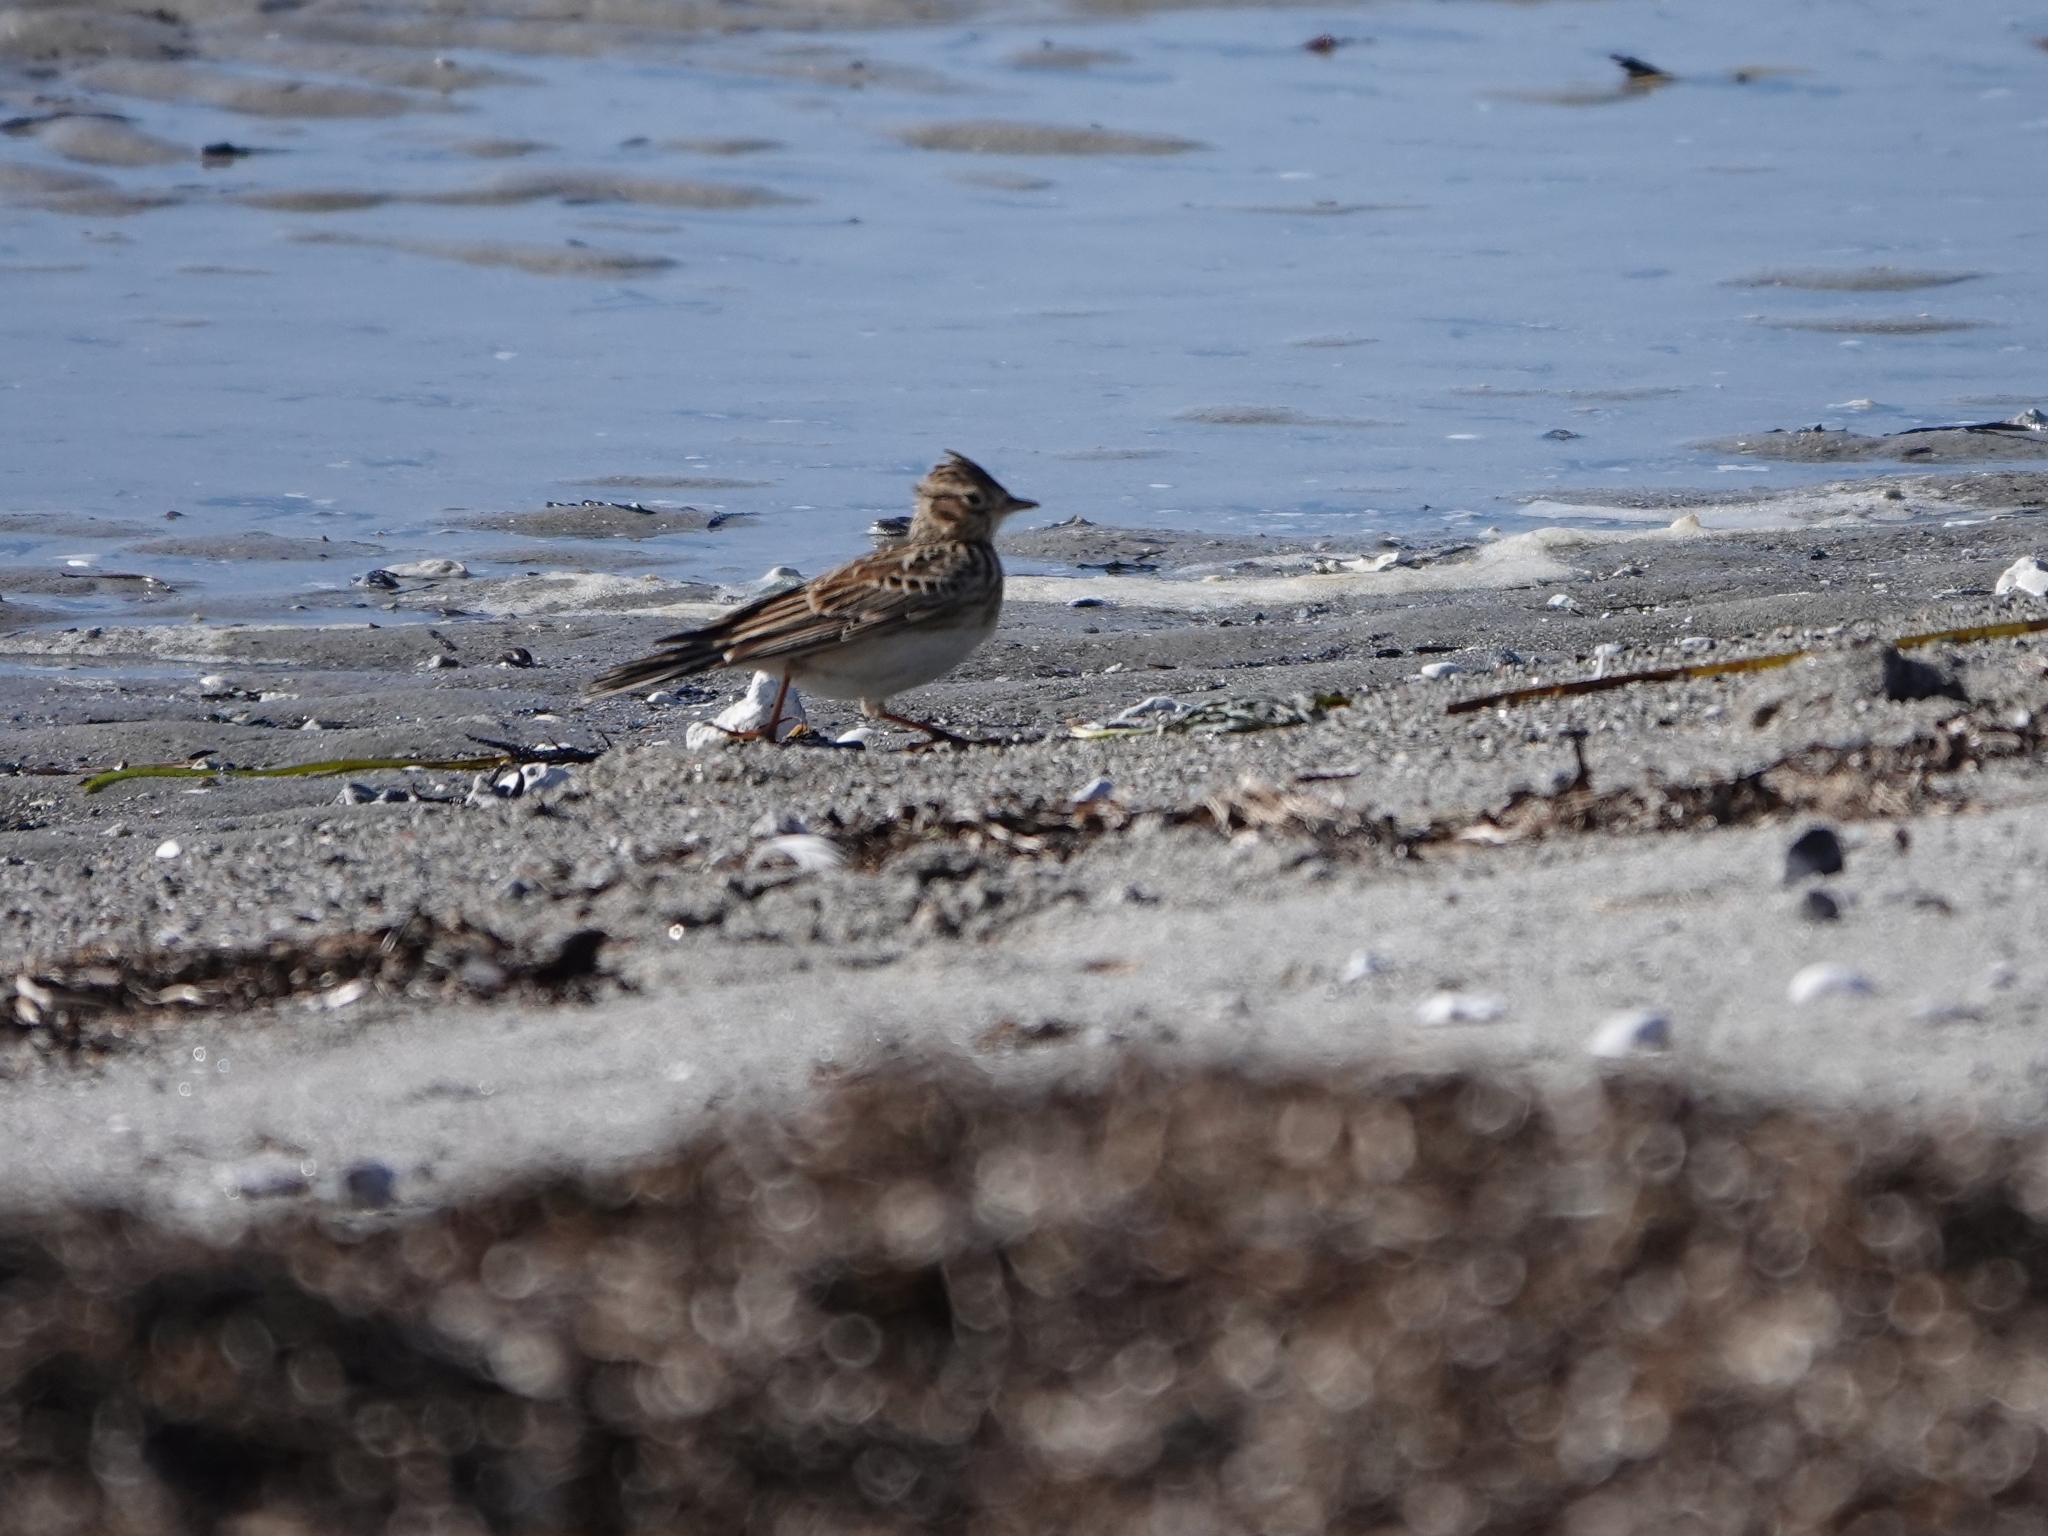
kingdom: Animalia
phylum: Chordata
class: Aves
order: Passeriformes
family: Alaudidae
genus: Alauda
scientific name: Alauda arvensis
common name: Eurasian skylark
